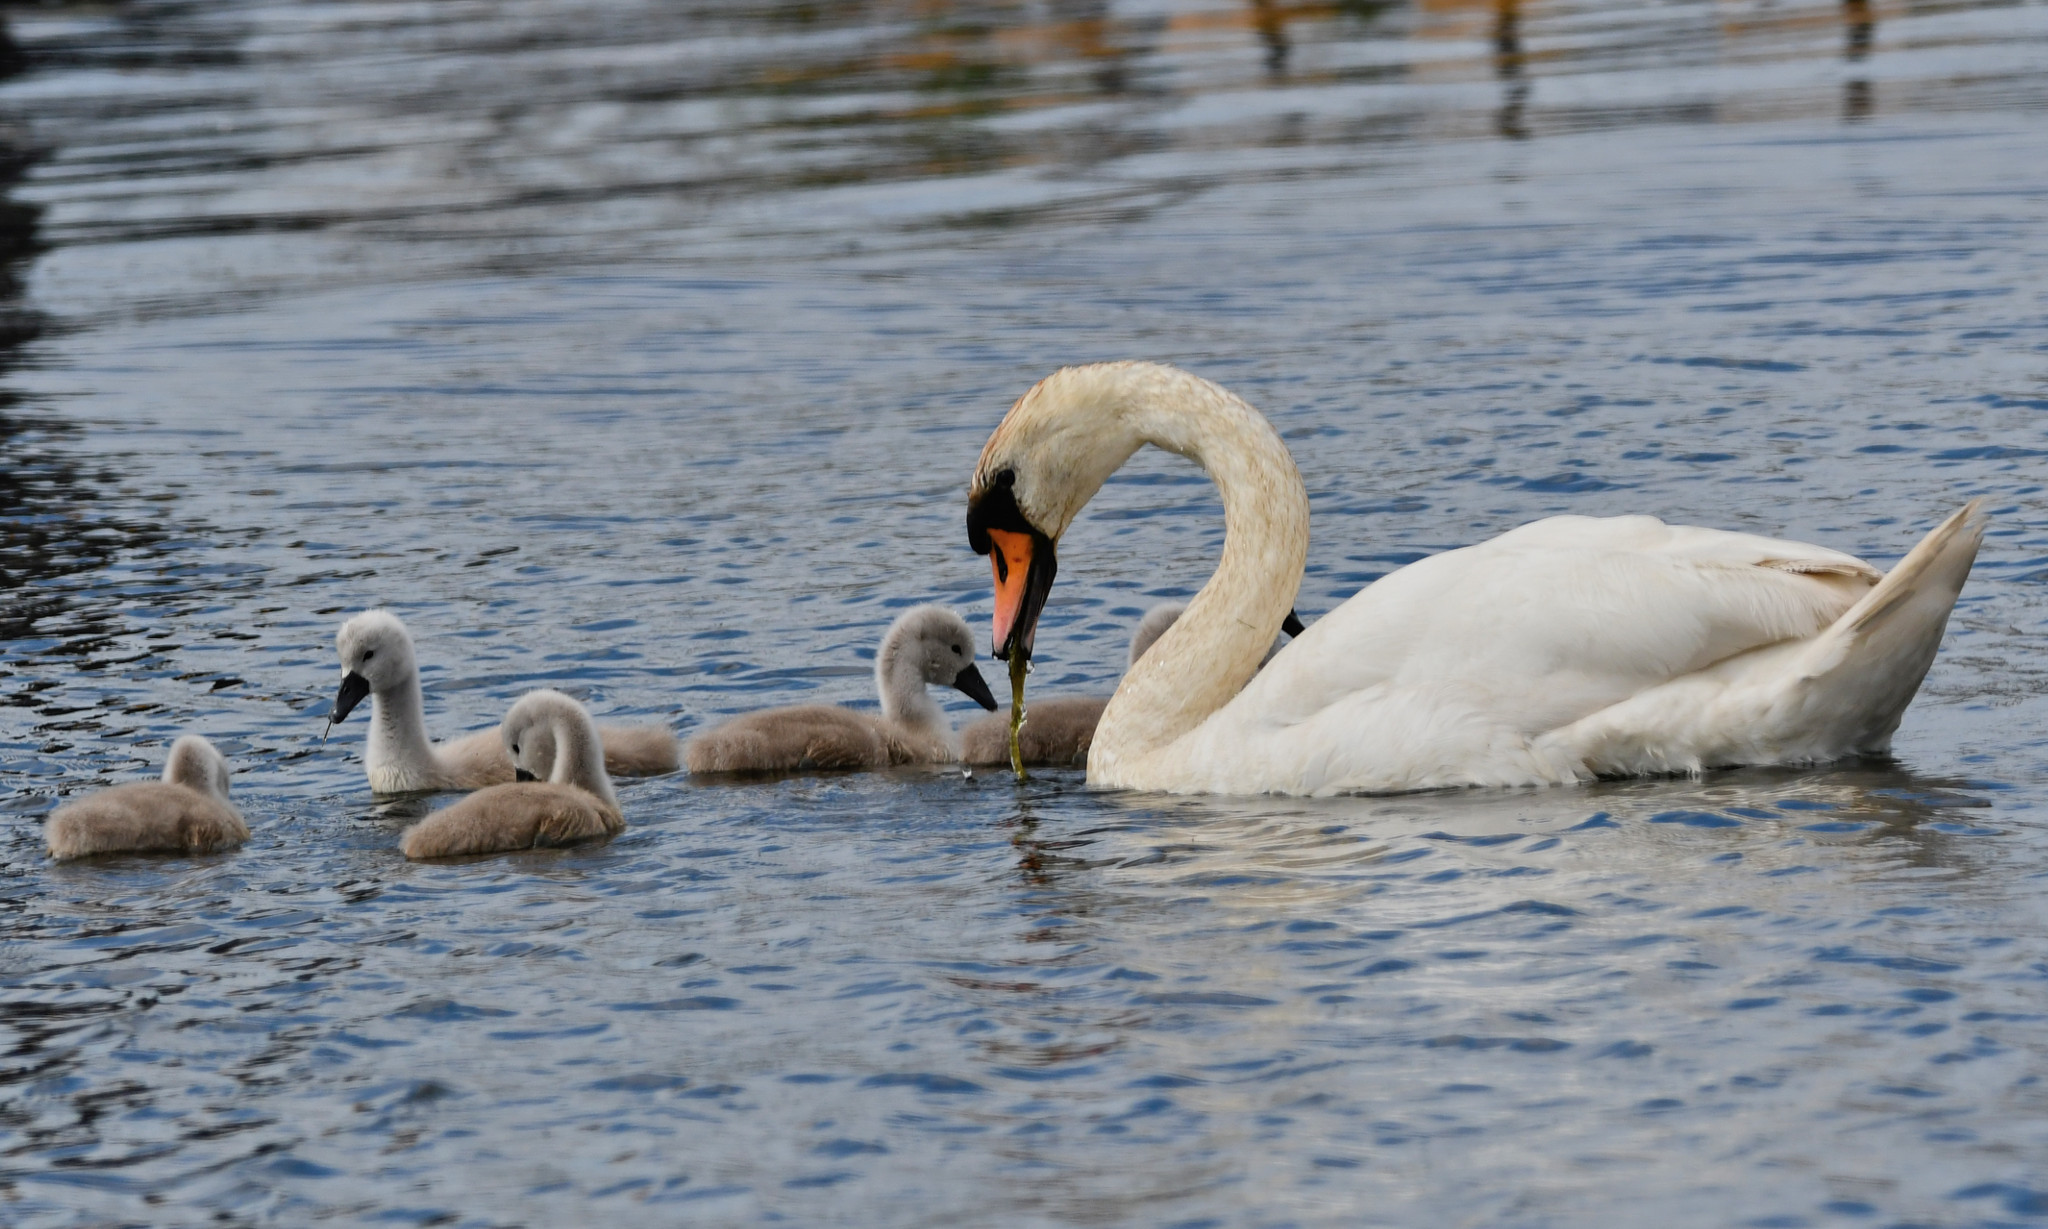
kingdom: Animalia
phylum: Chordata
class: Aves
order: Anseriformes
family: Anatidae
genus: Cygnus
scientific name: Cygnus olor
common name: Mute swan
